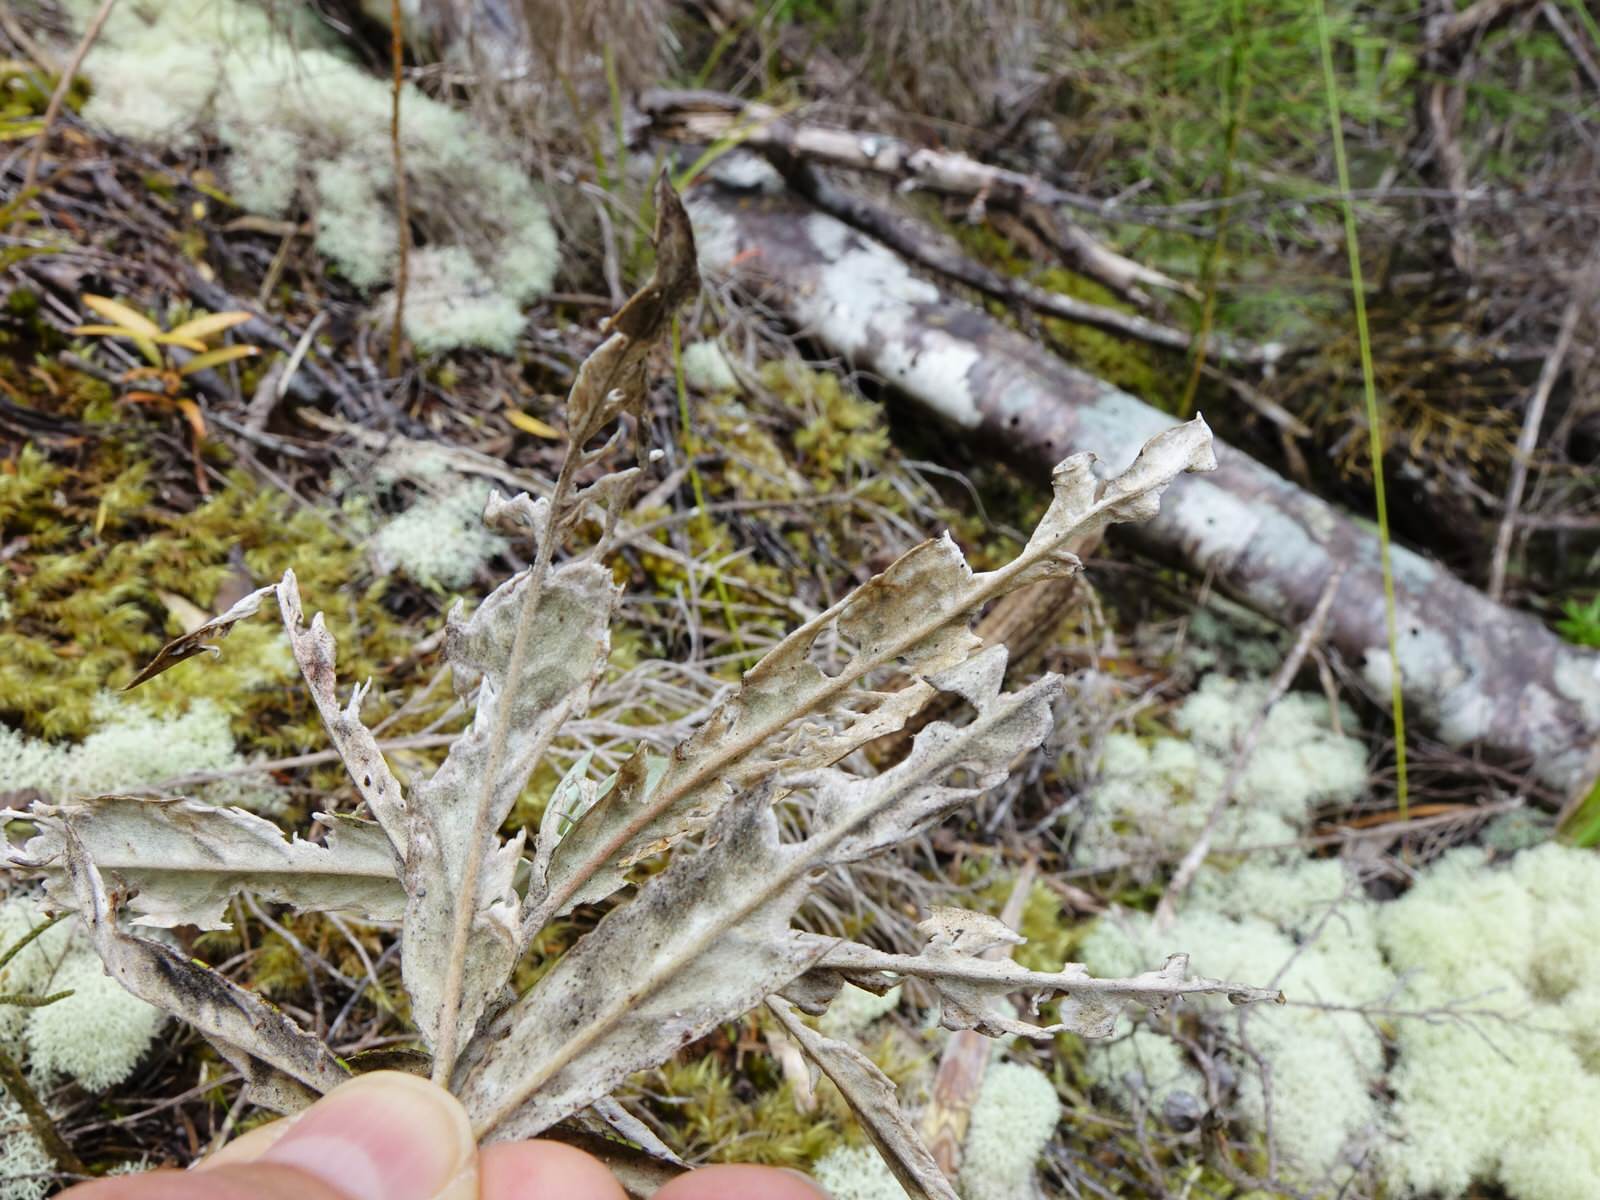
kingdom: Plantae
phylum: Tracheophyta
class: Magnoliopsida
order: Asterales
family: Argophyllaceae
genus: Corokia
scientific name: Corokia buddleioides
